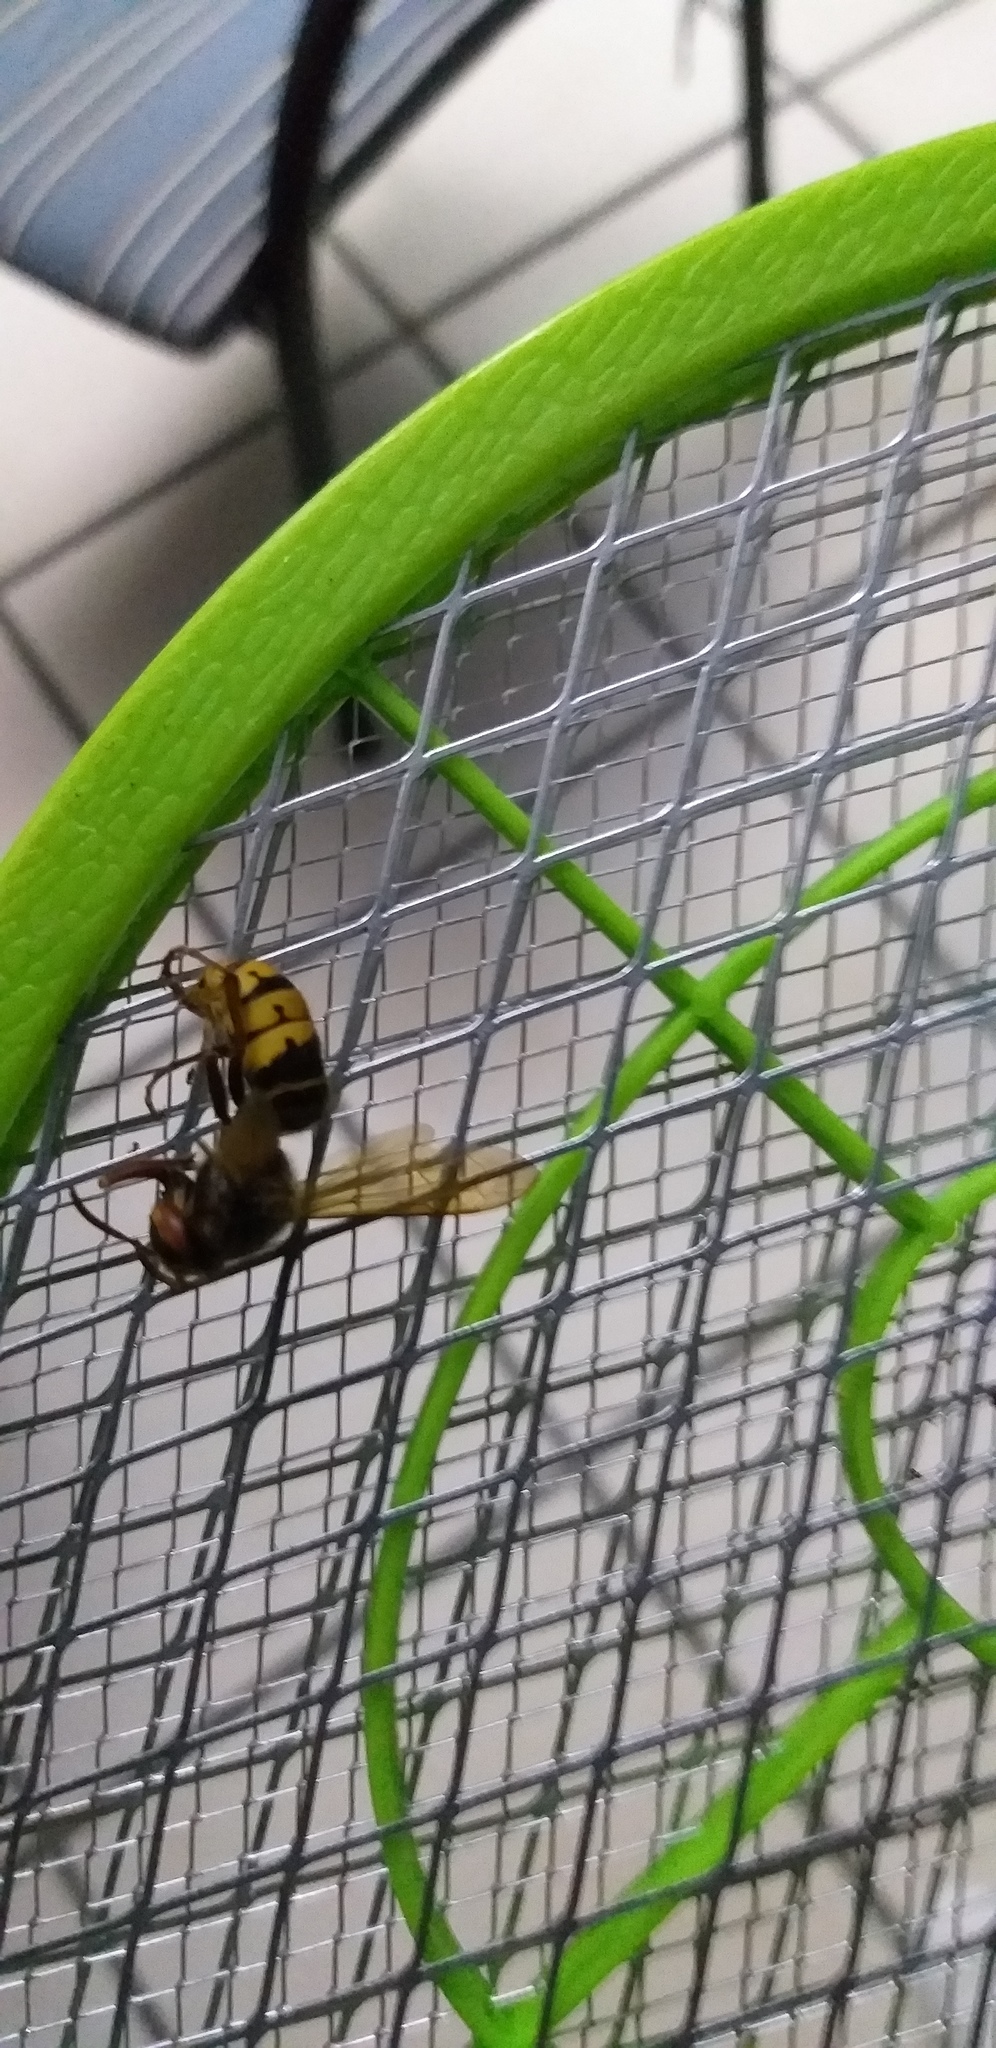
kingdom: Animalia
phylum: Arthropoda
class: Insecta
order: Hymenoptera
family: Vespidae
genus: Vespa
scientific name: Vespa crabro
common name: Hornet
